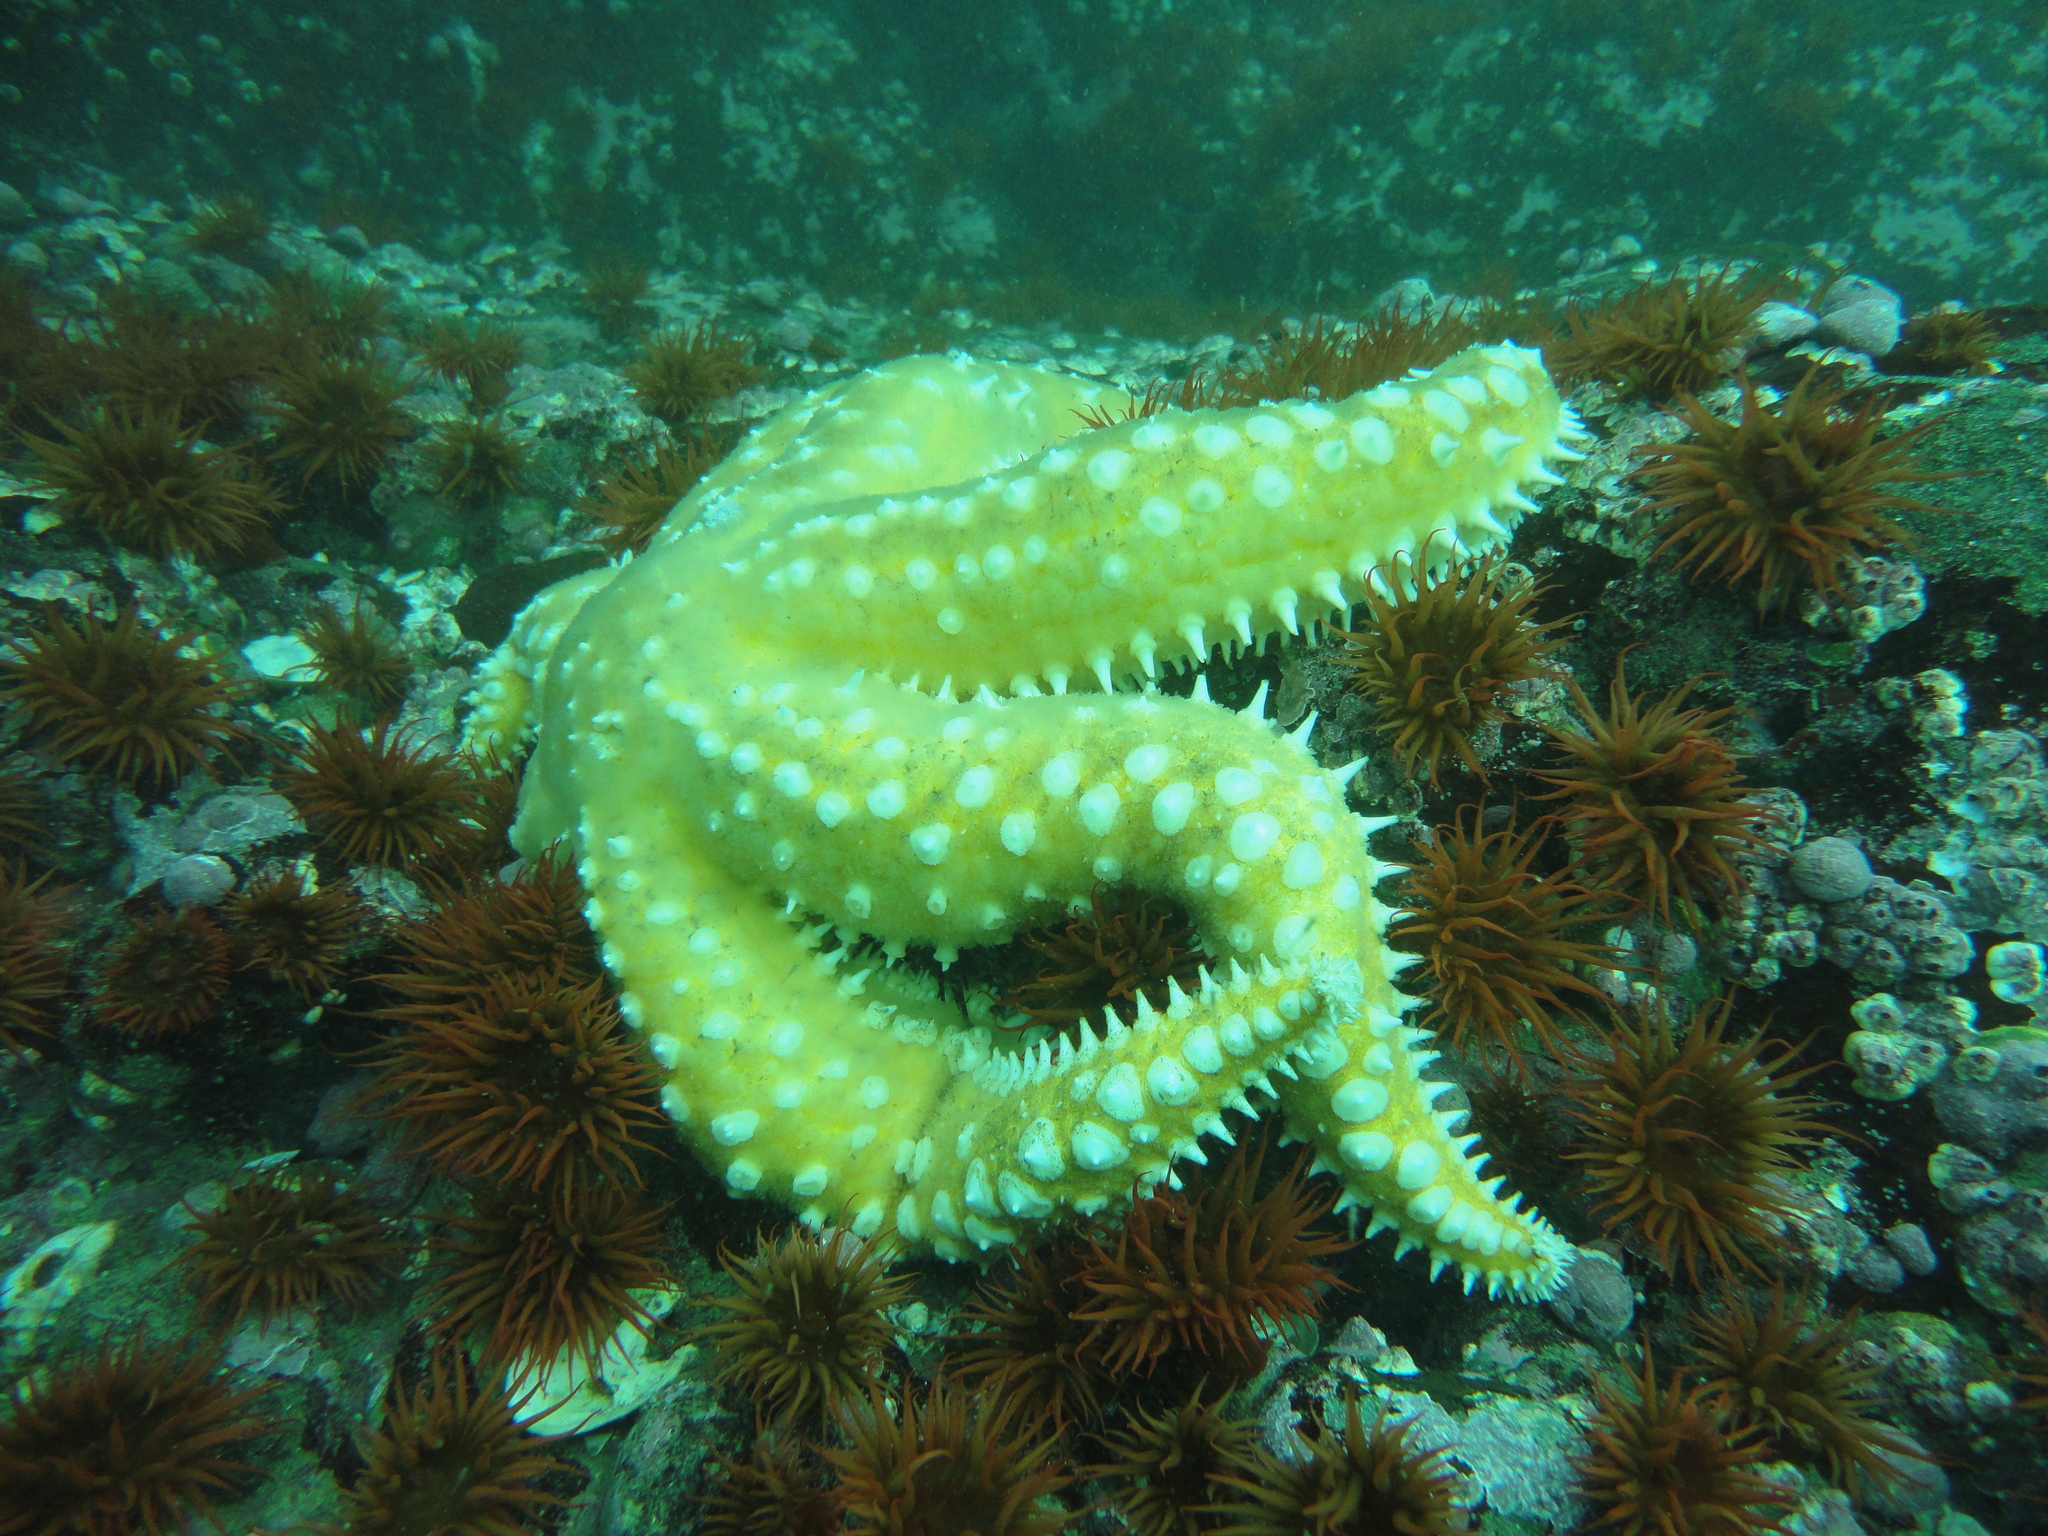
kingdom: Animalia
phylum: Echinodermata
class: Asteroidea
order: Forcipulatida
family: Asteriidae
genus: Meyenaster
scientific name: Meyenaster gelatinosus
